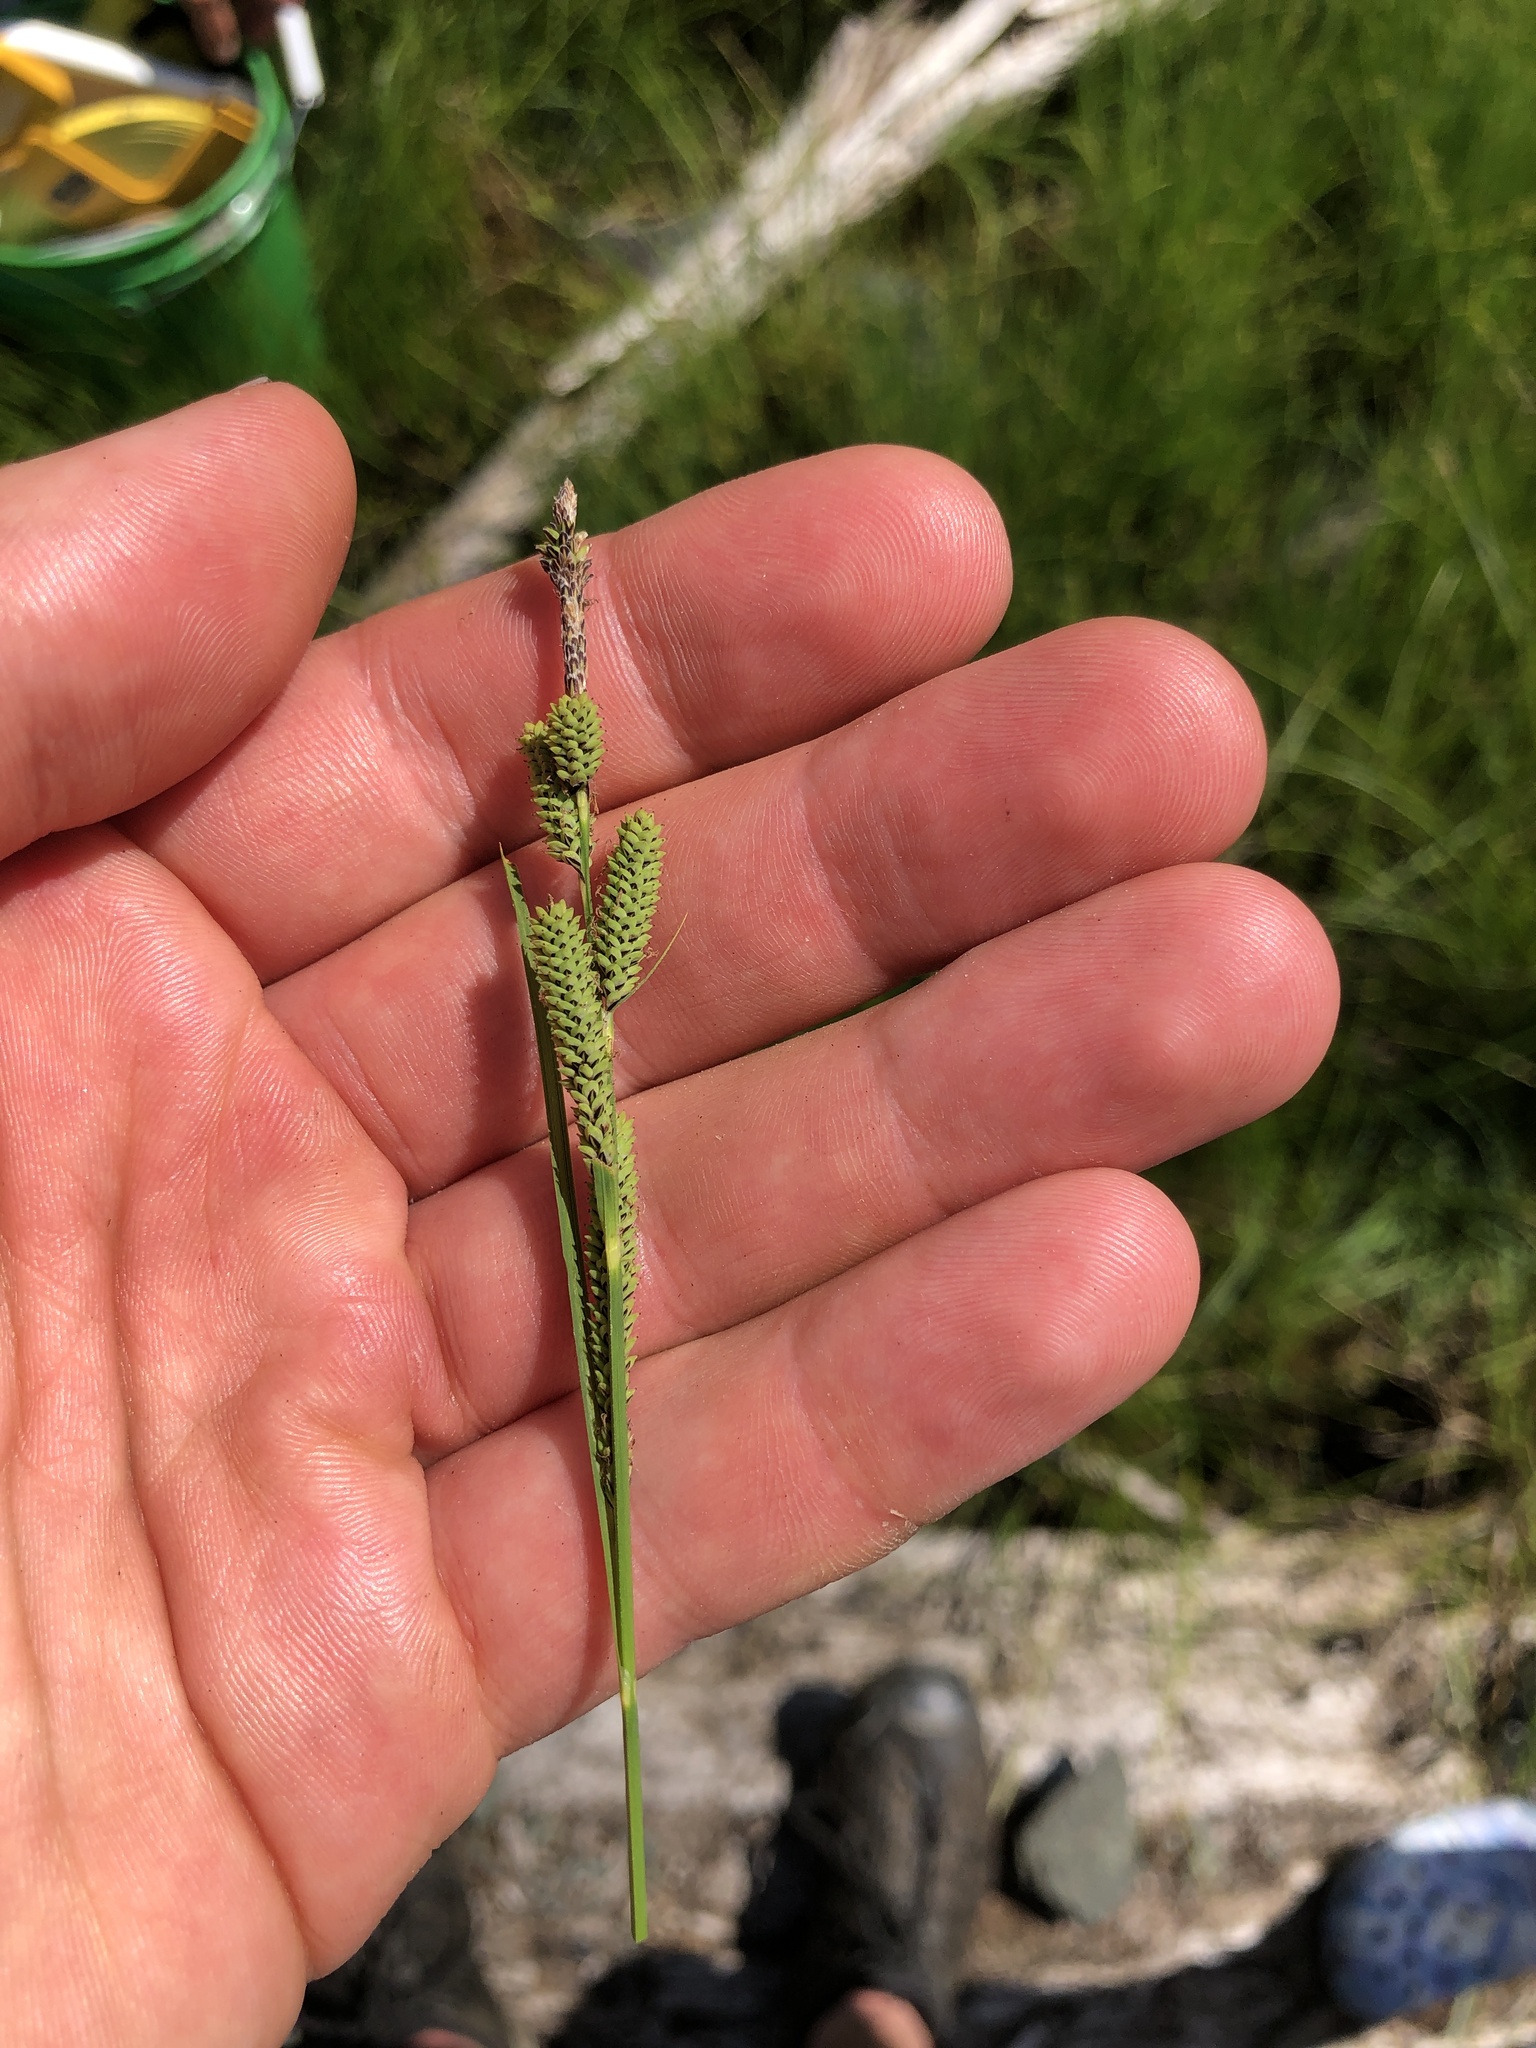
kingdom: Plantae
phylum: Tracheophyta
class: Liliopsida
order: Poales
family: Cyperaceae
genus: Carex
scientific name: Carex kelloggii
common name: Kellogg's sedge
